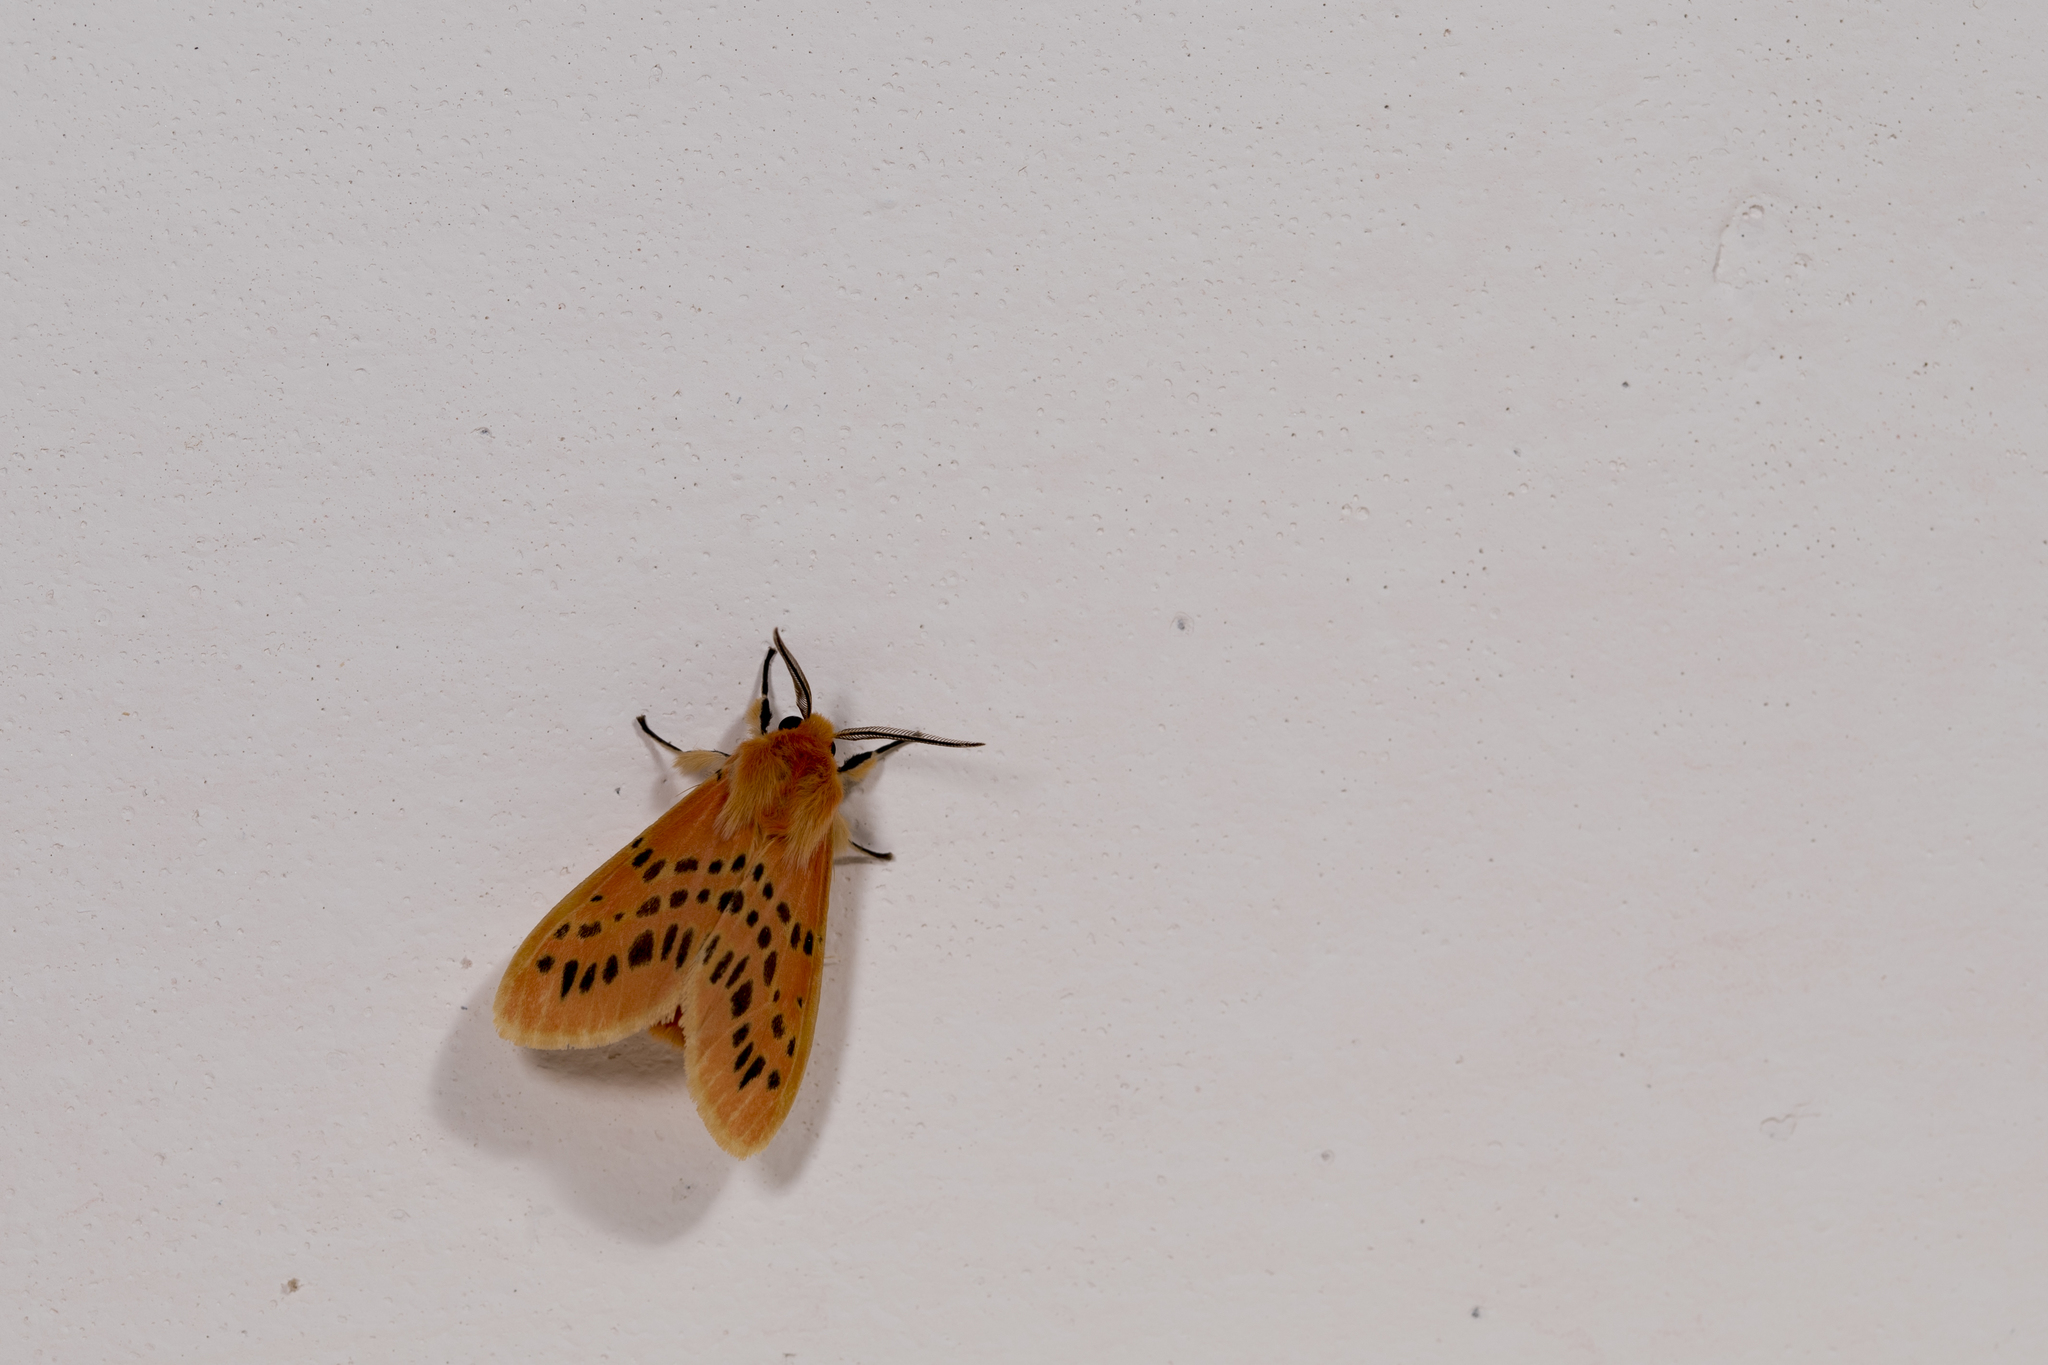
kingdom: Animalia
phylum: Arthropoda
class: Insecta
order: Lepidoptera
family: Erebidae
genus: Lemyra
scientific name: Lemyra alikangensis
